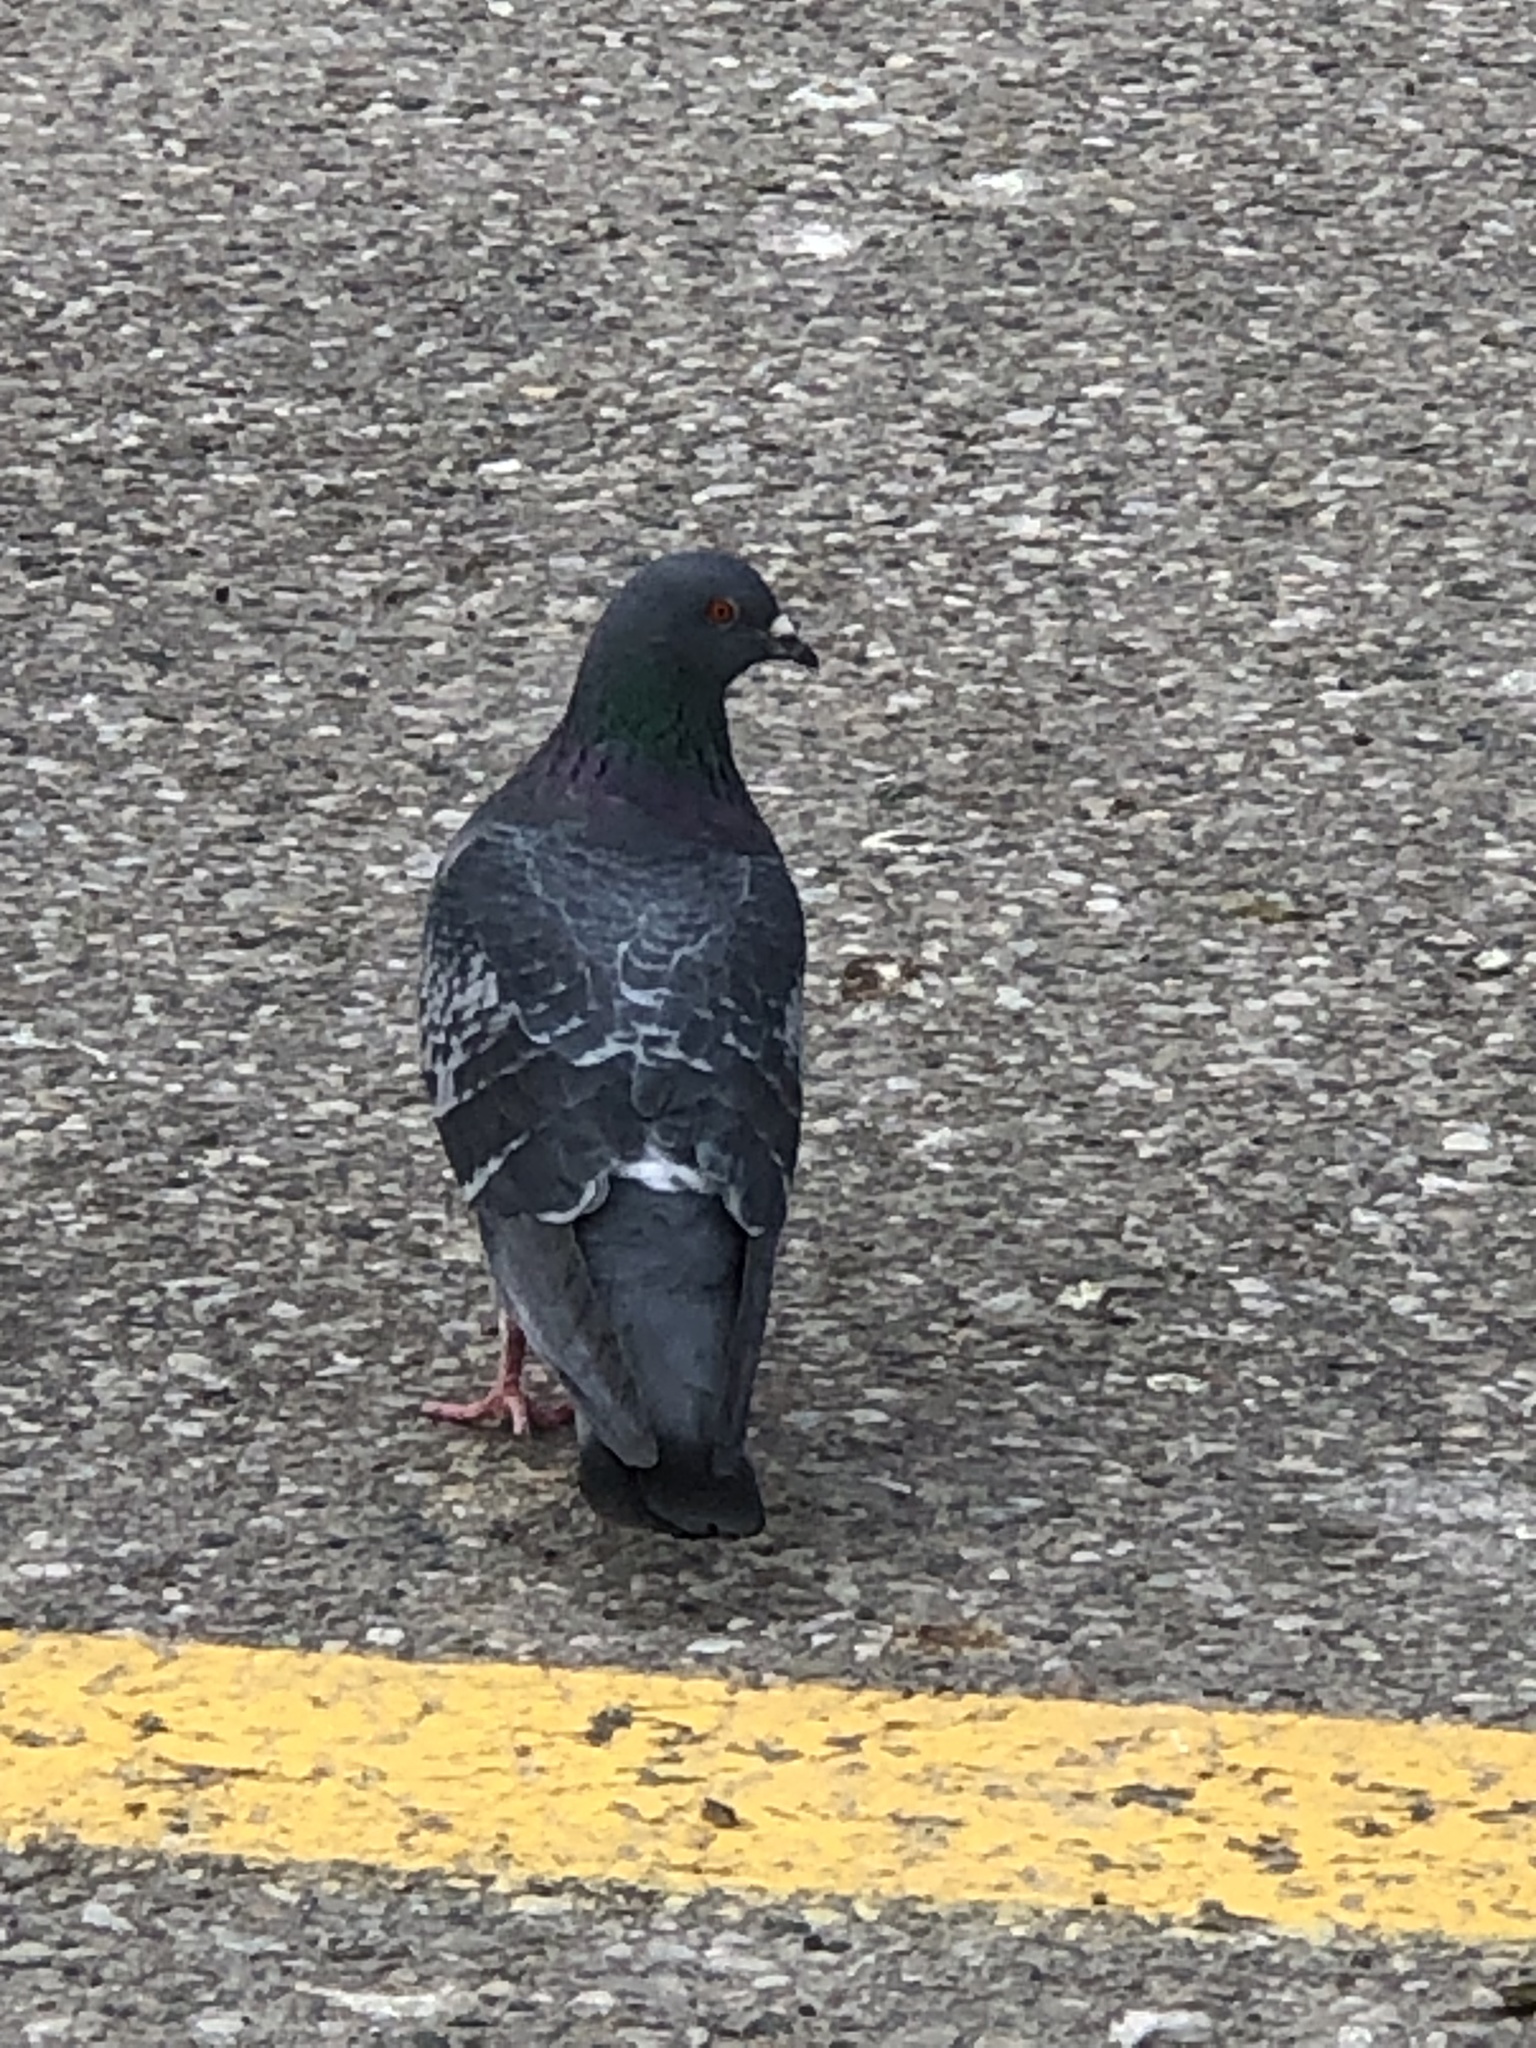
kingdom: Animalia
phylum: Chordata
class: Aves
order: Columbiformes
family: Columbidae
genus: Columba
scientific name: Columba livia
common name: Rock pigeon
